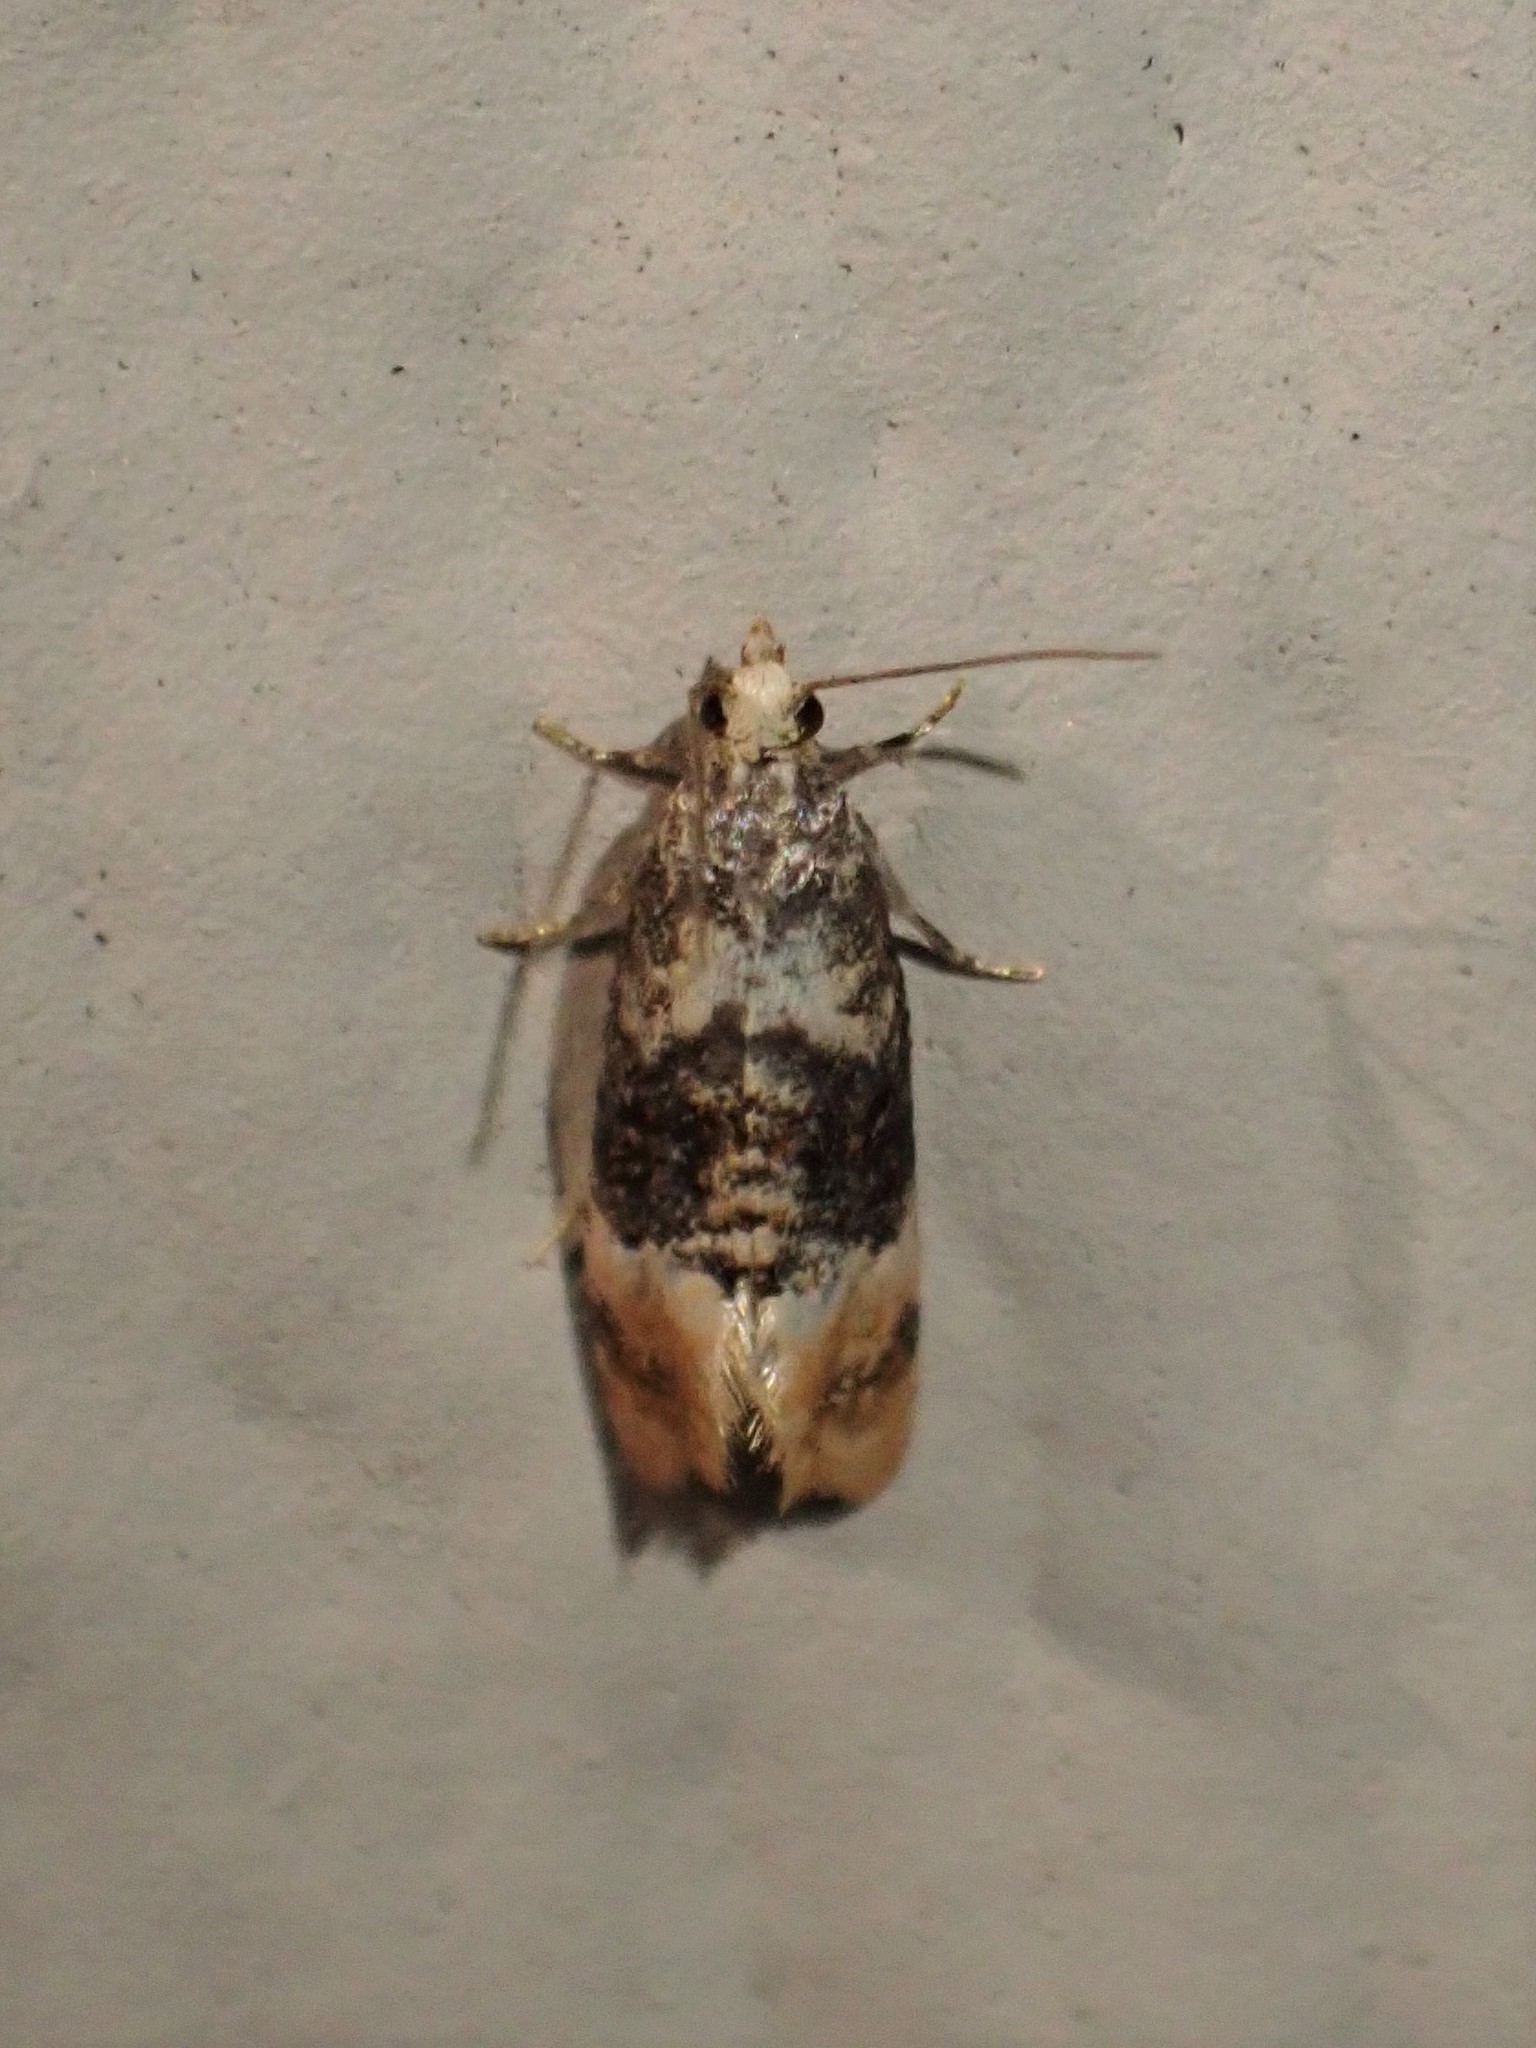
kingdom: Animalia
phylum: Arthropoda
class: Insecta
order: Lepidoptera
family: Tortricidae
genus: Thyraylia
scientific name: Thyraylia nana
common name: Birch conch
